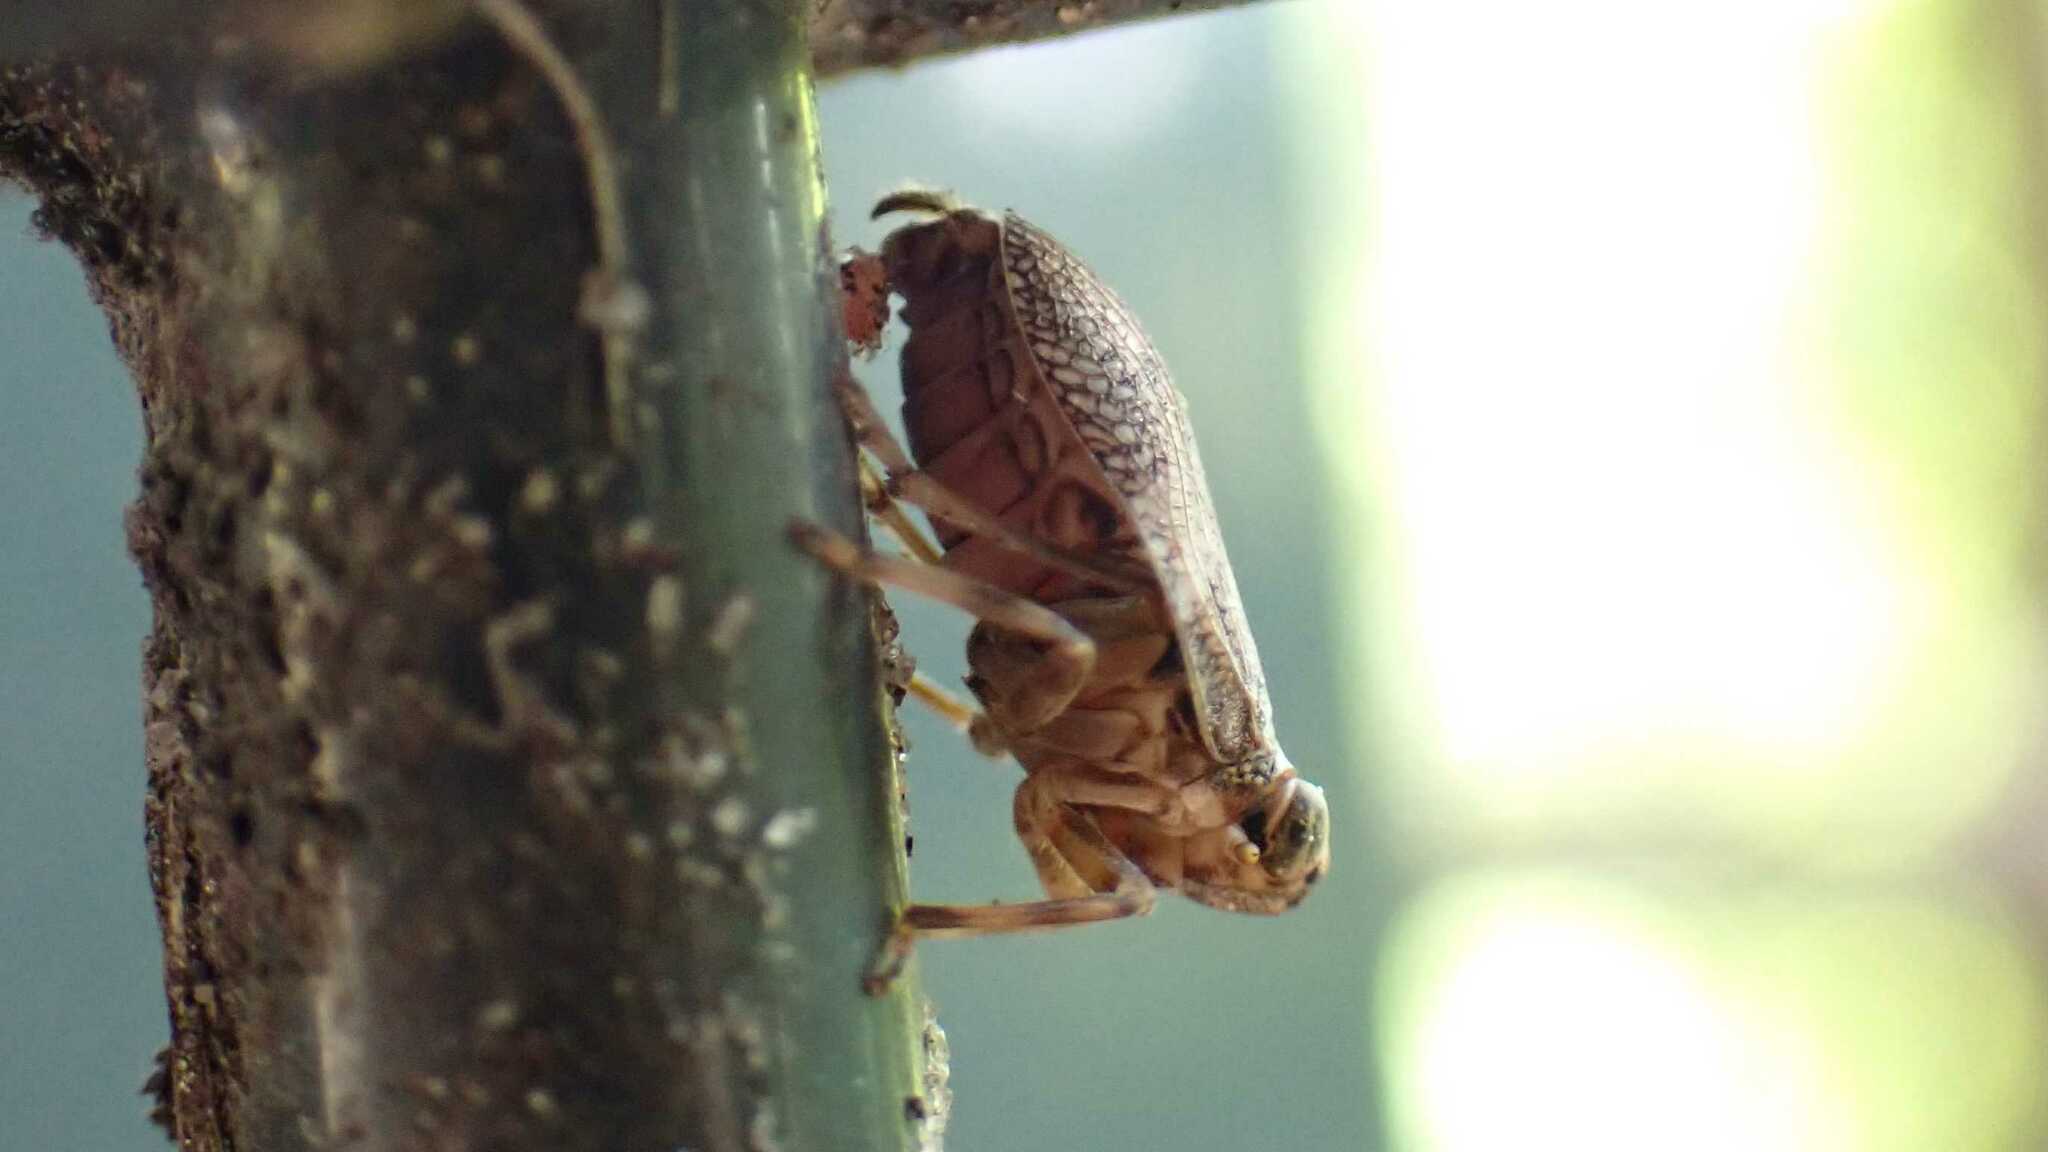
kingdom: Animalia
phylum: Arthropoda
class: Insecta
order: Hemiptera
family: Issidae
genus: Issus
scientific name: Issus coleoptratus
